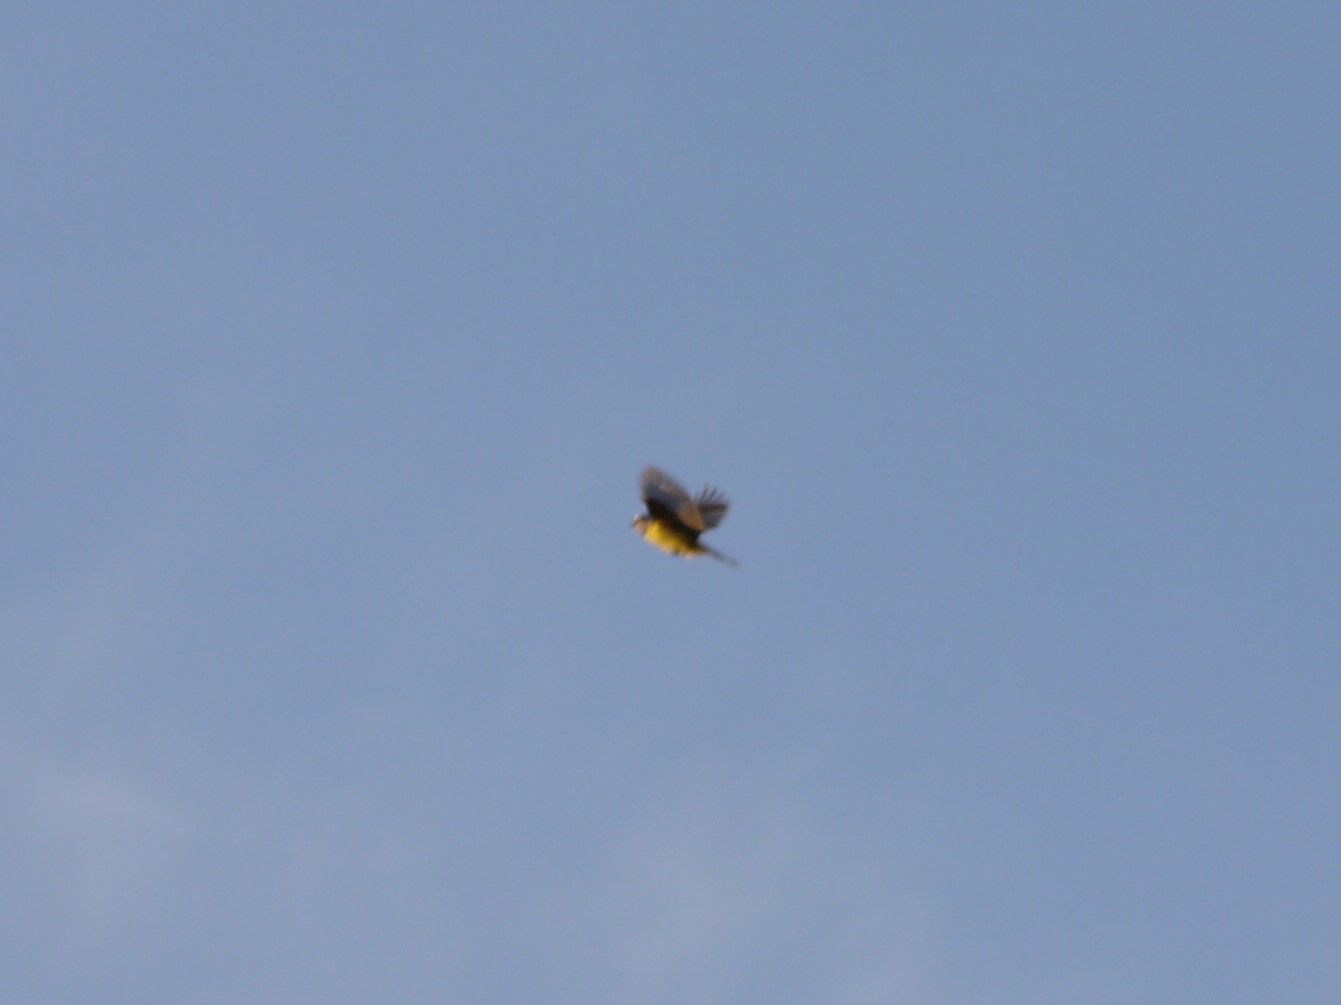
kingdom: Animalia
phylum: Chordata
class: Aves
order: Passeriformes
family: Paridae
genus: Cyanistes
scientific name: Cyanistes caeruleus
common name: Eurasian blue tit
